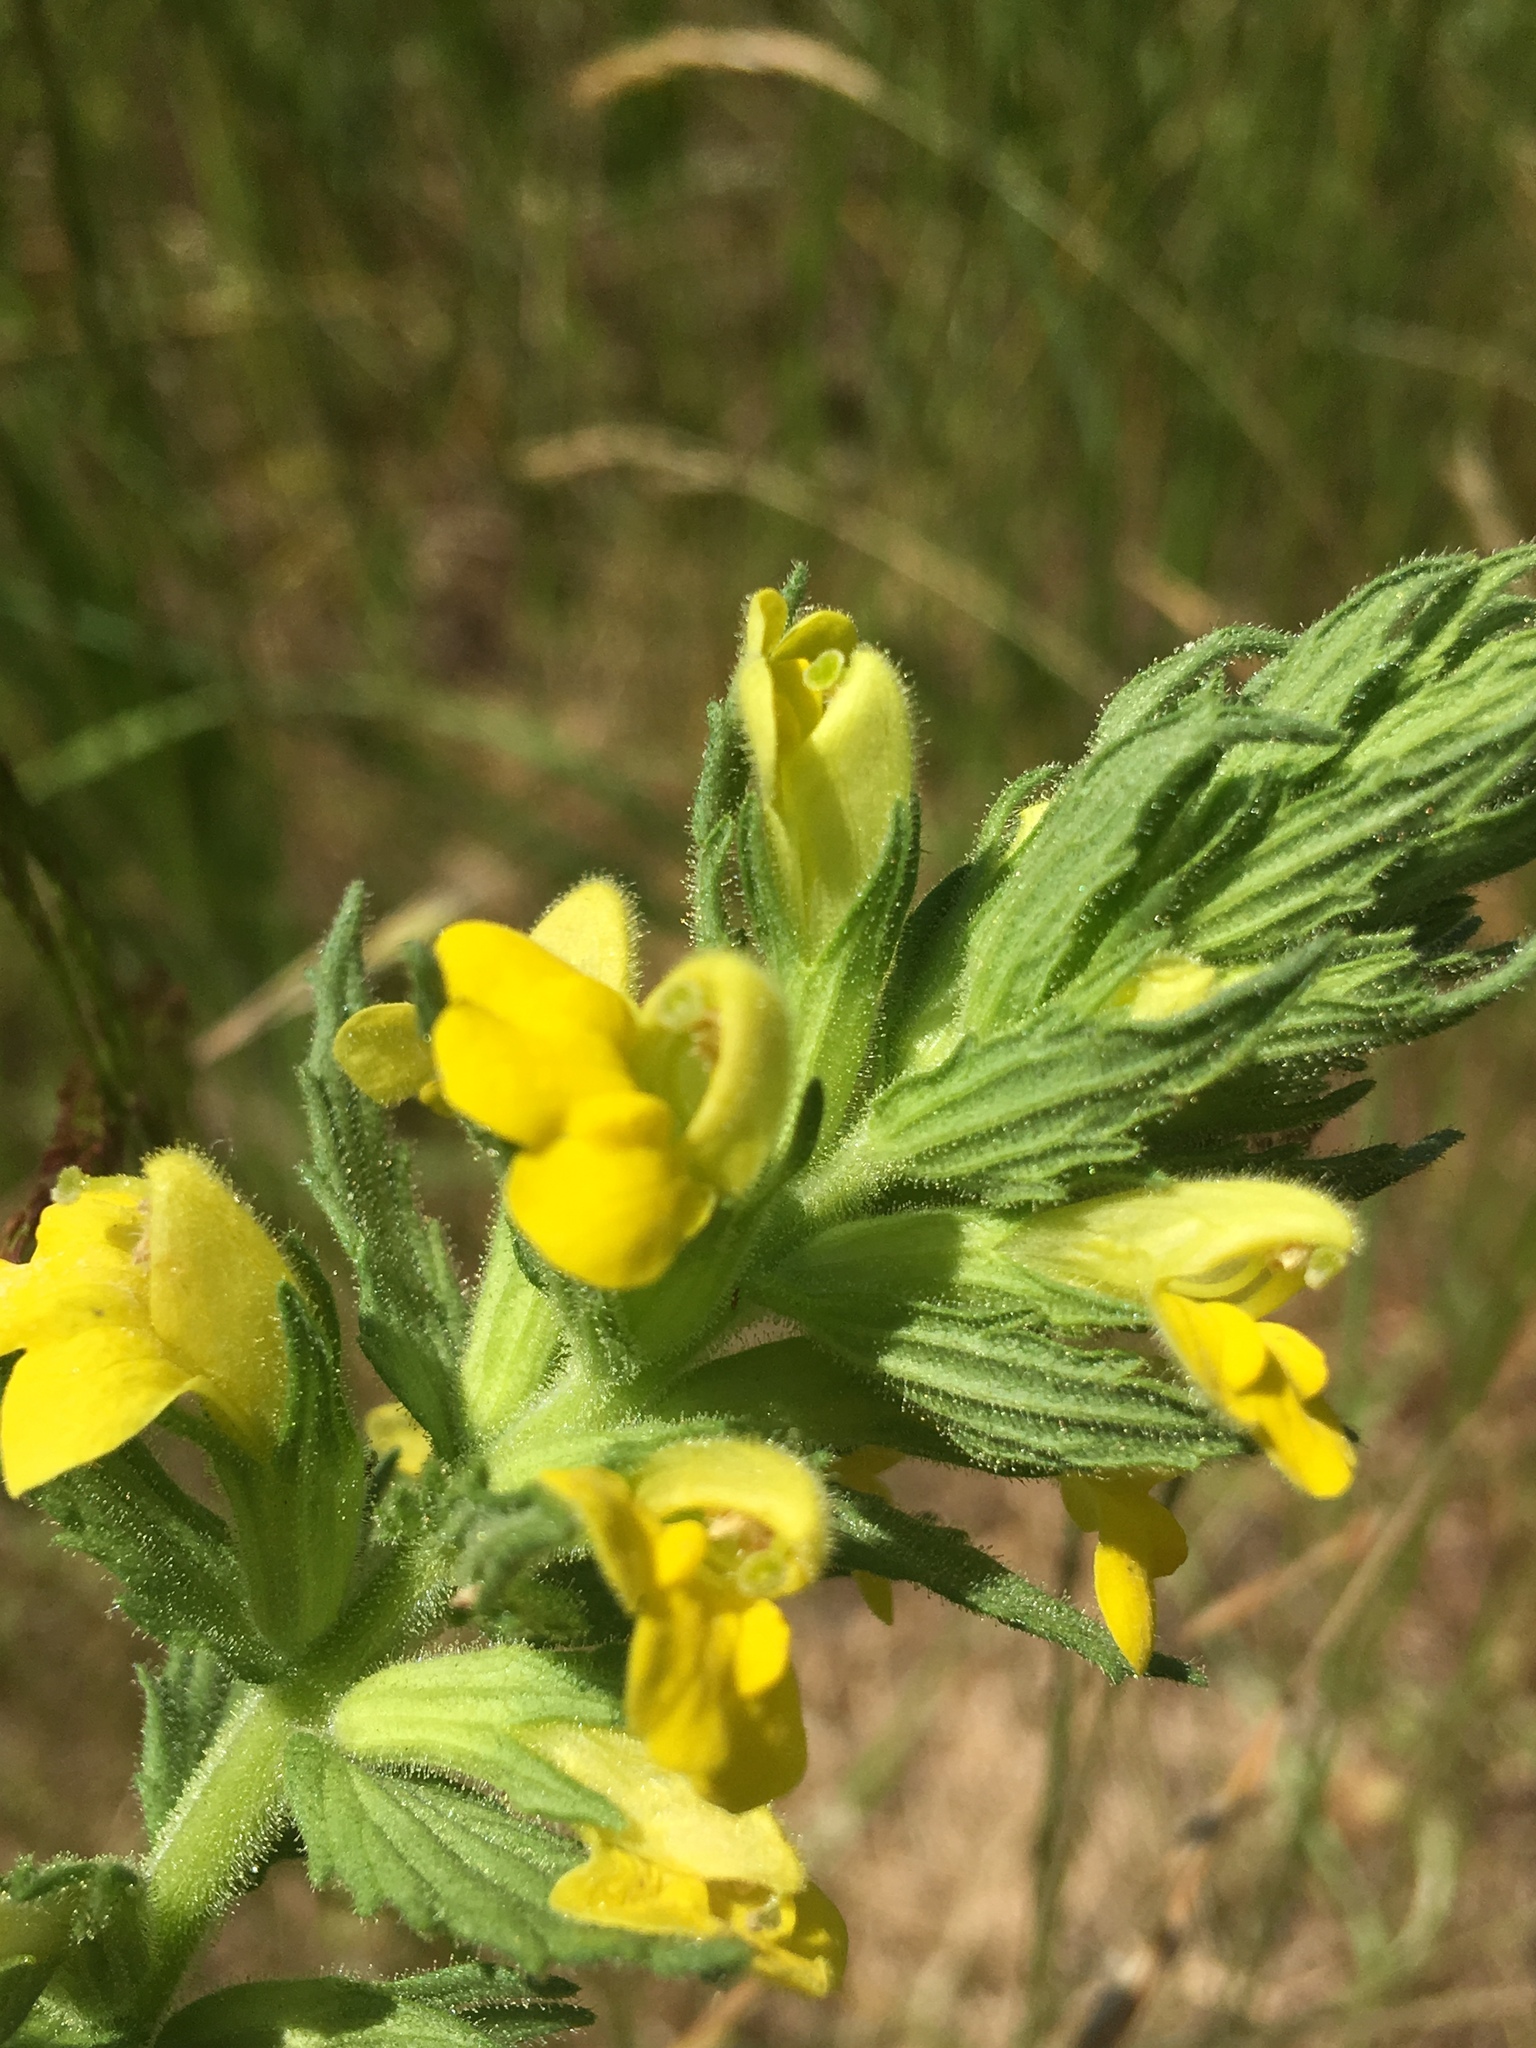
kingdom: Plantae
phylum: Tracheophyta
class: Magnoliopsida
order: Lamiales
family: Orobanchaceae
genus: Bellardia
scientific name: Bellardia viscosa
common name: Sticky parentucellia
